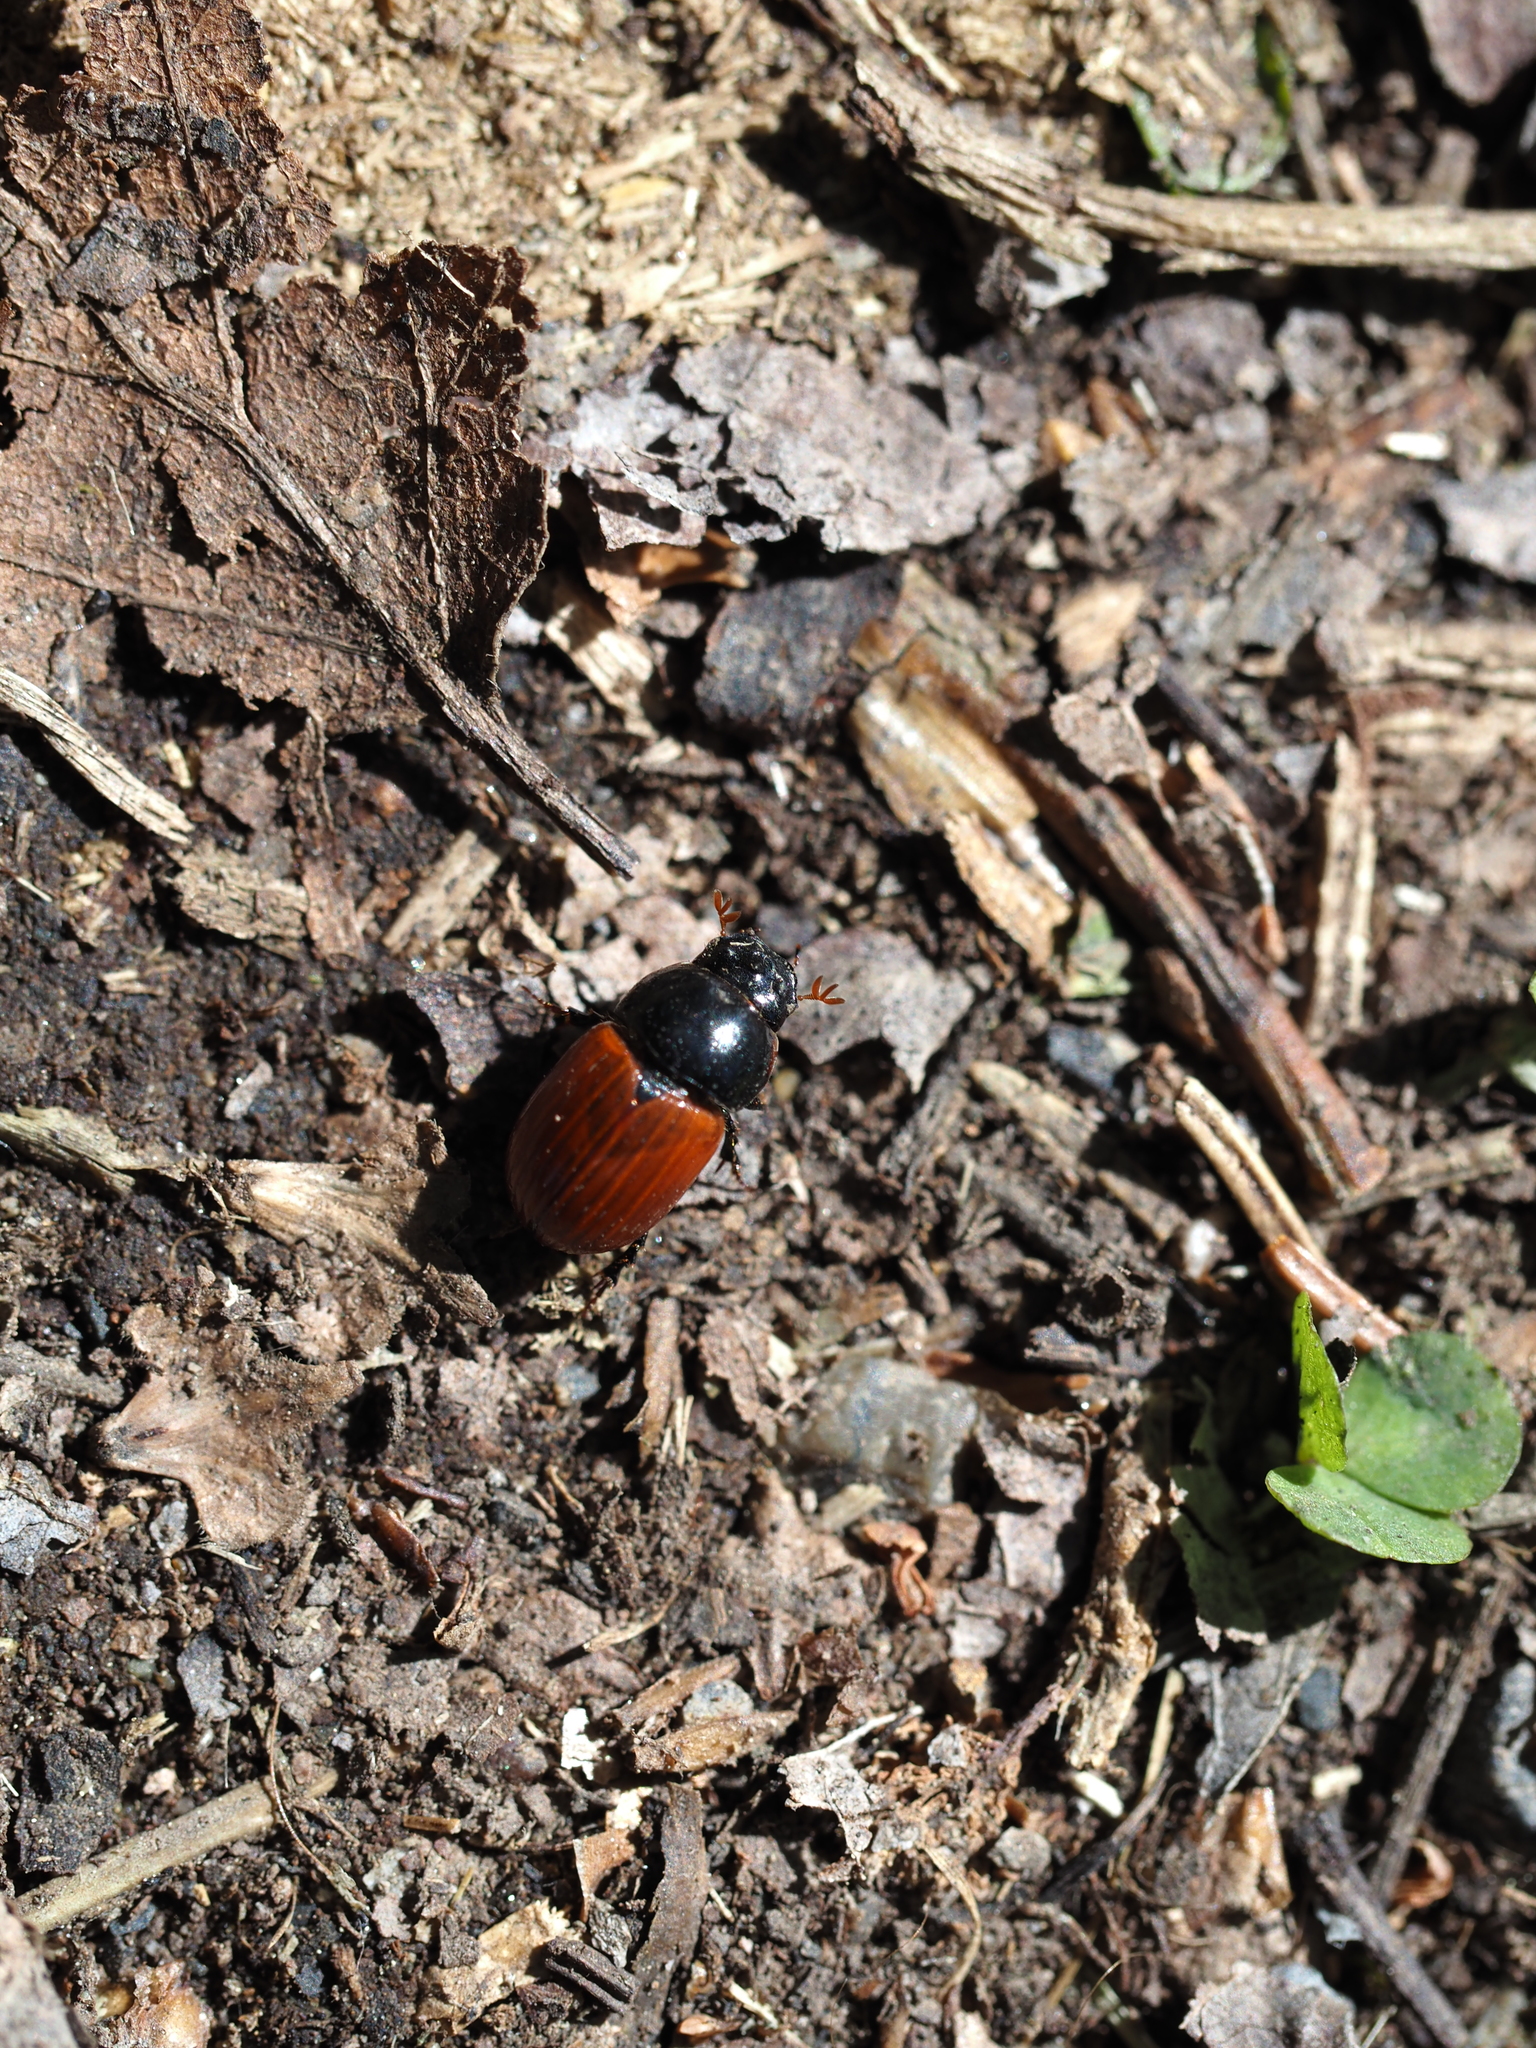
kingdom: Animalia
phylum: Arthropoda
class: Insecta
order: Coleoptera
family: Scarabaeidae
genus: Aphodius
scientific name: Aphodius pedellus
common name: Common dung beetle
